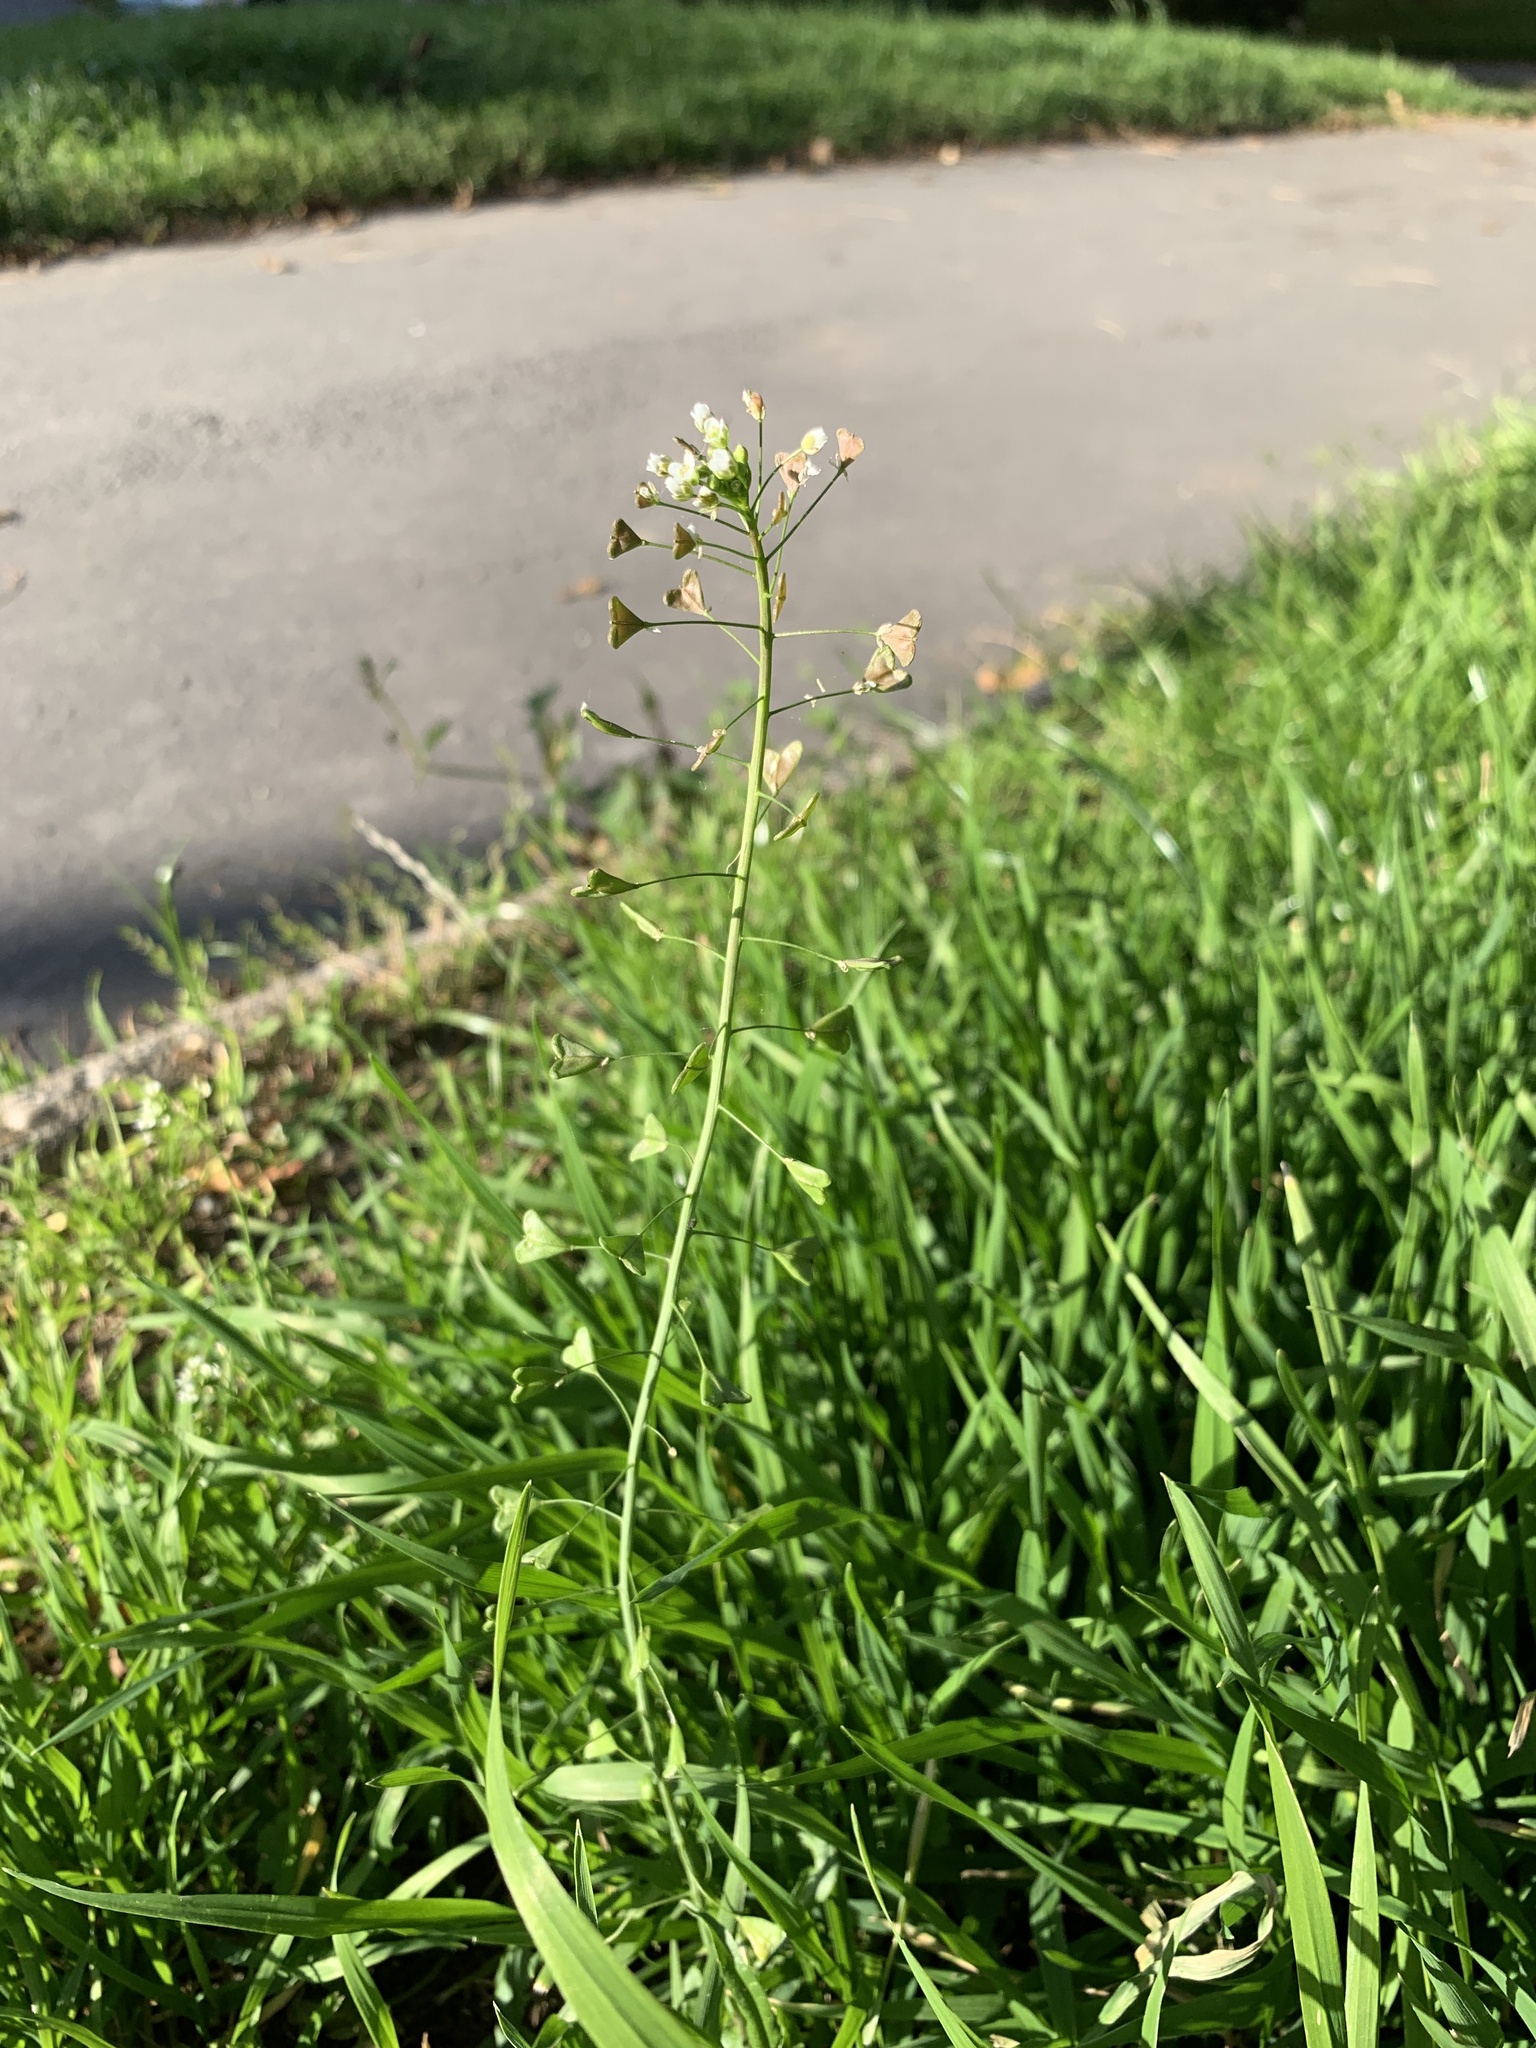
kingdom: Plantae
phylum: Tracheophyta
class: Magnoliopsida
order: Brassicales
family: Brassicaceae
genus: Capsella
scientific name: Capsella bursa-pastoris
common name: Shepherd's purse
